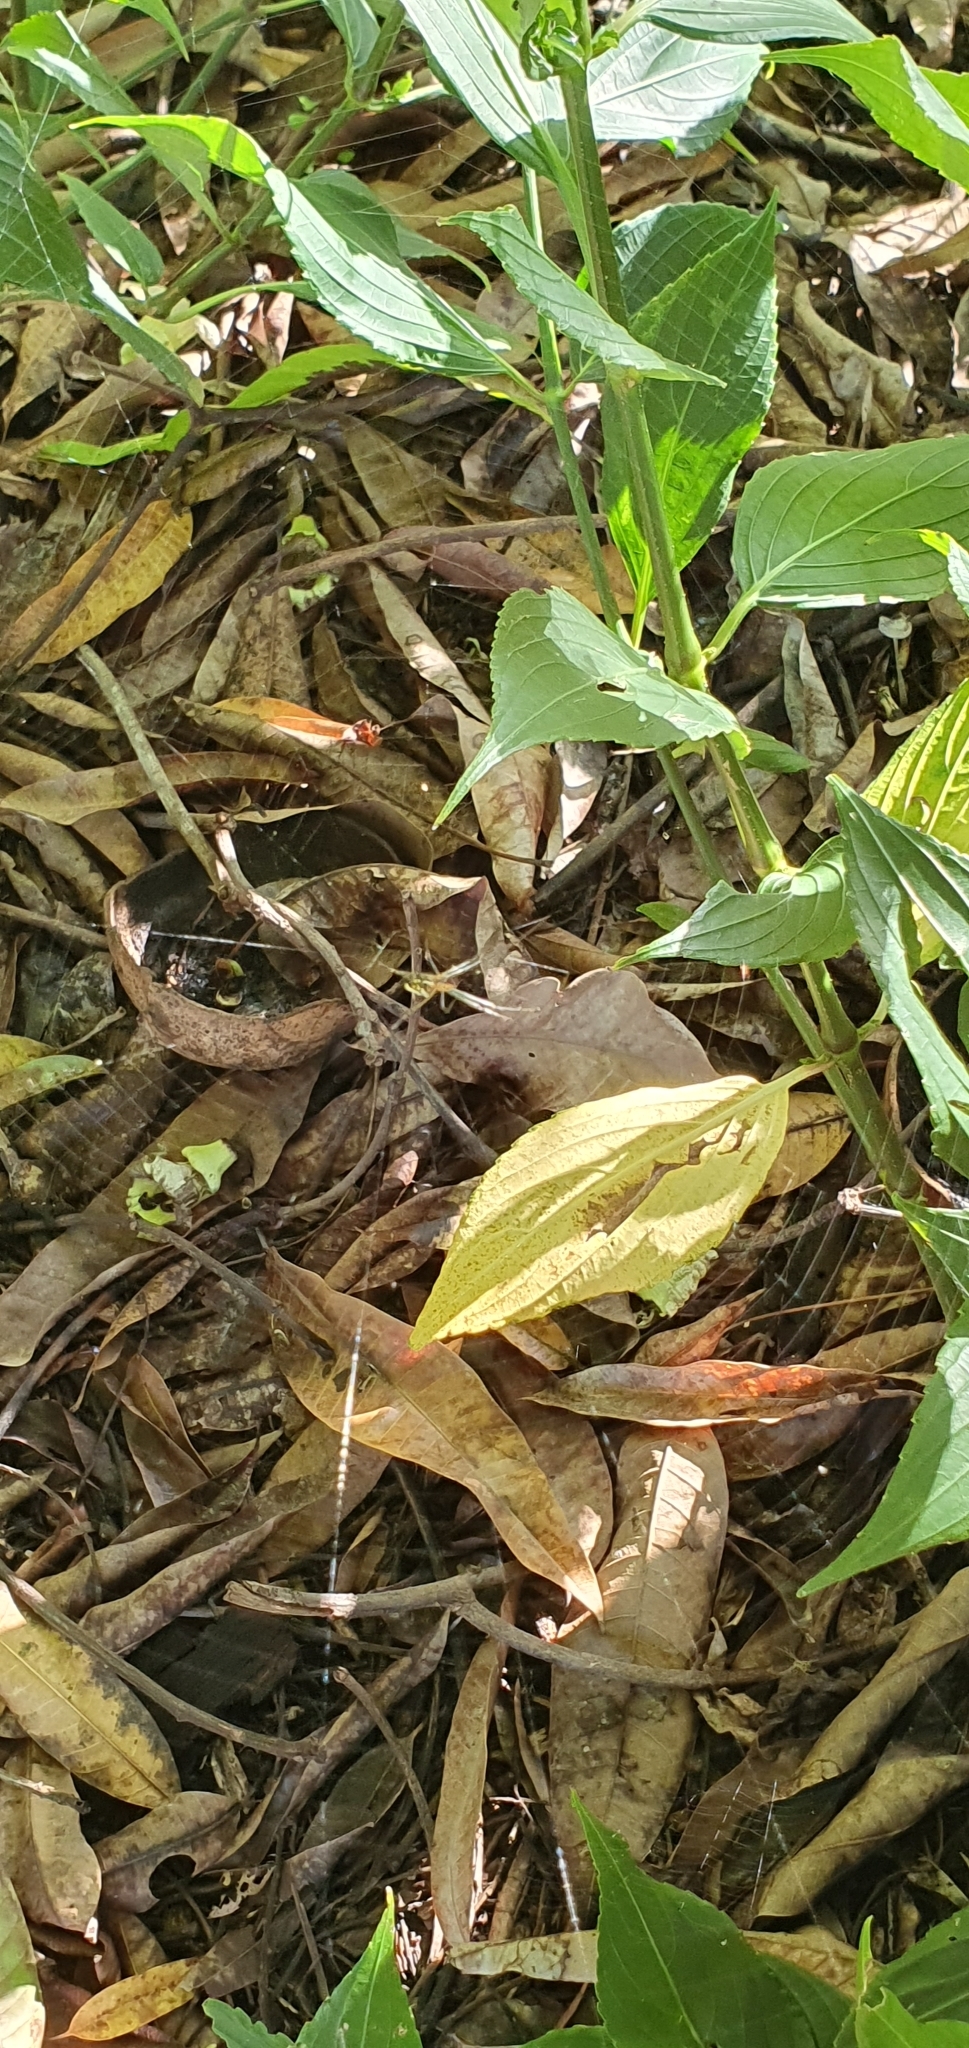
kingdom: Animalia
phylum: Arthropoda
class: Arachnida
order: Araneae
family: Tetragnathidae
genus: Leucauge
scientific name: Leucauge dromedaria
